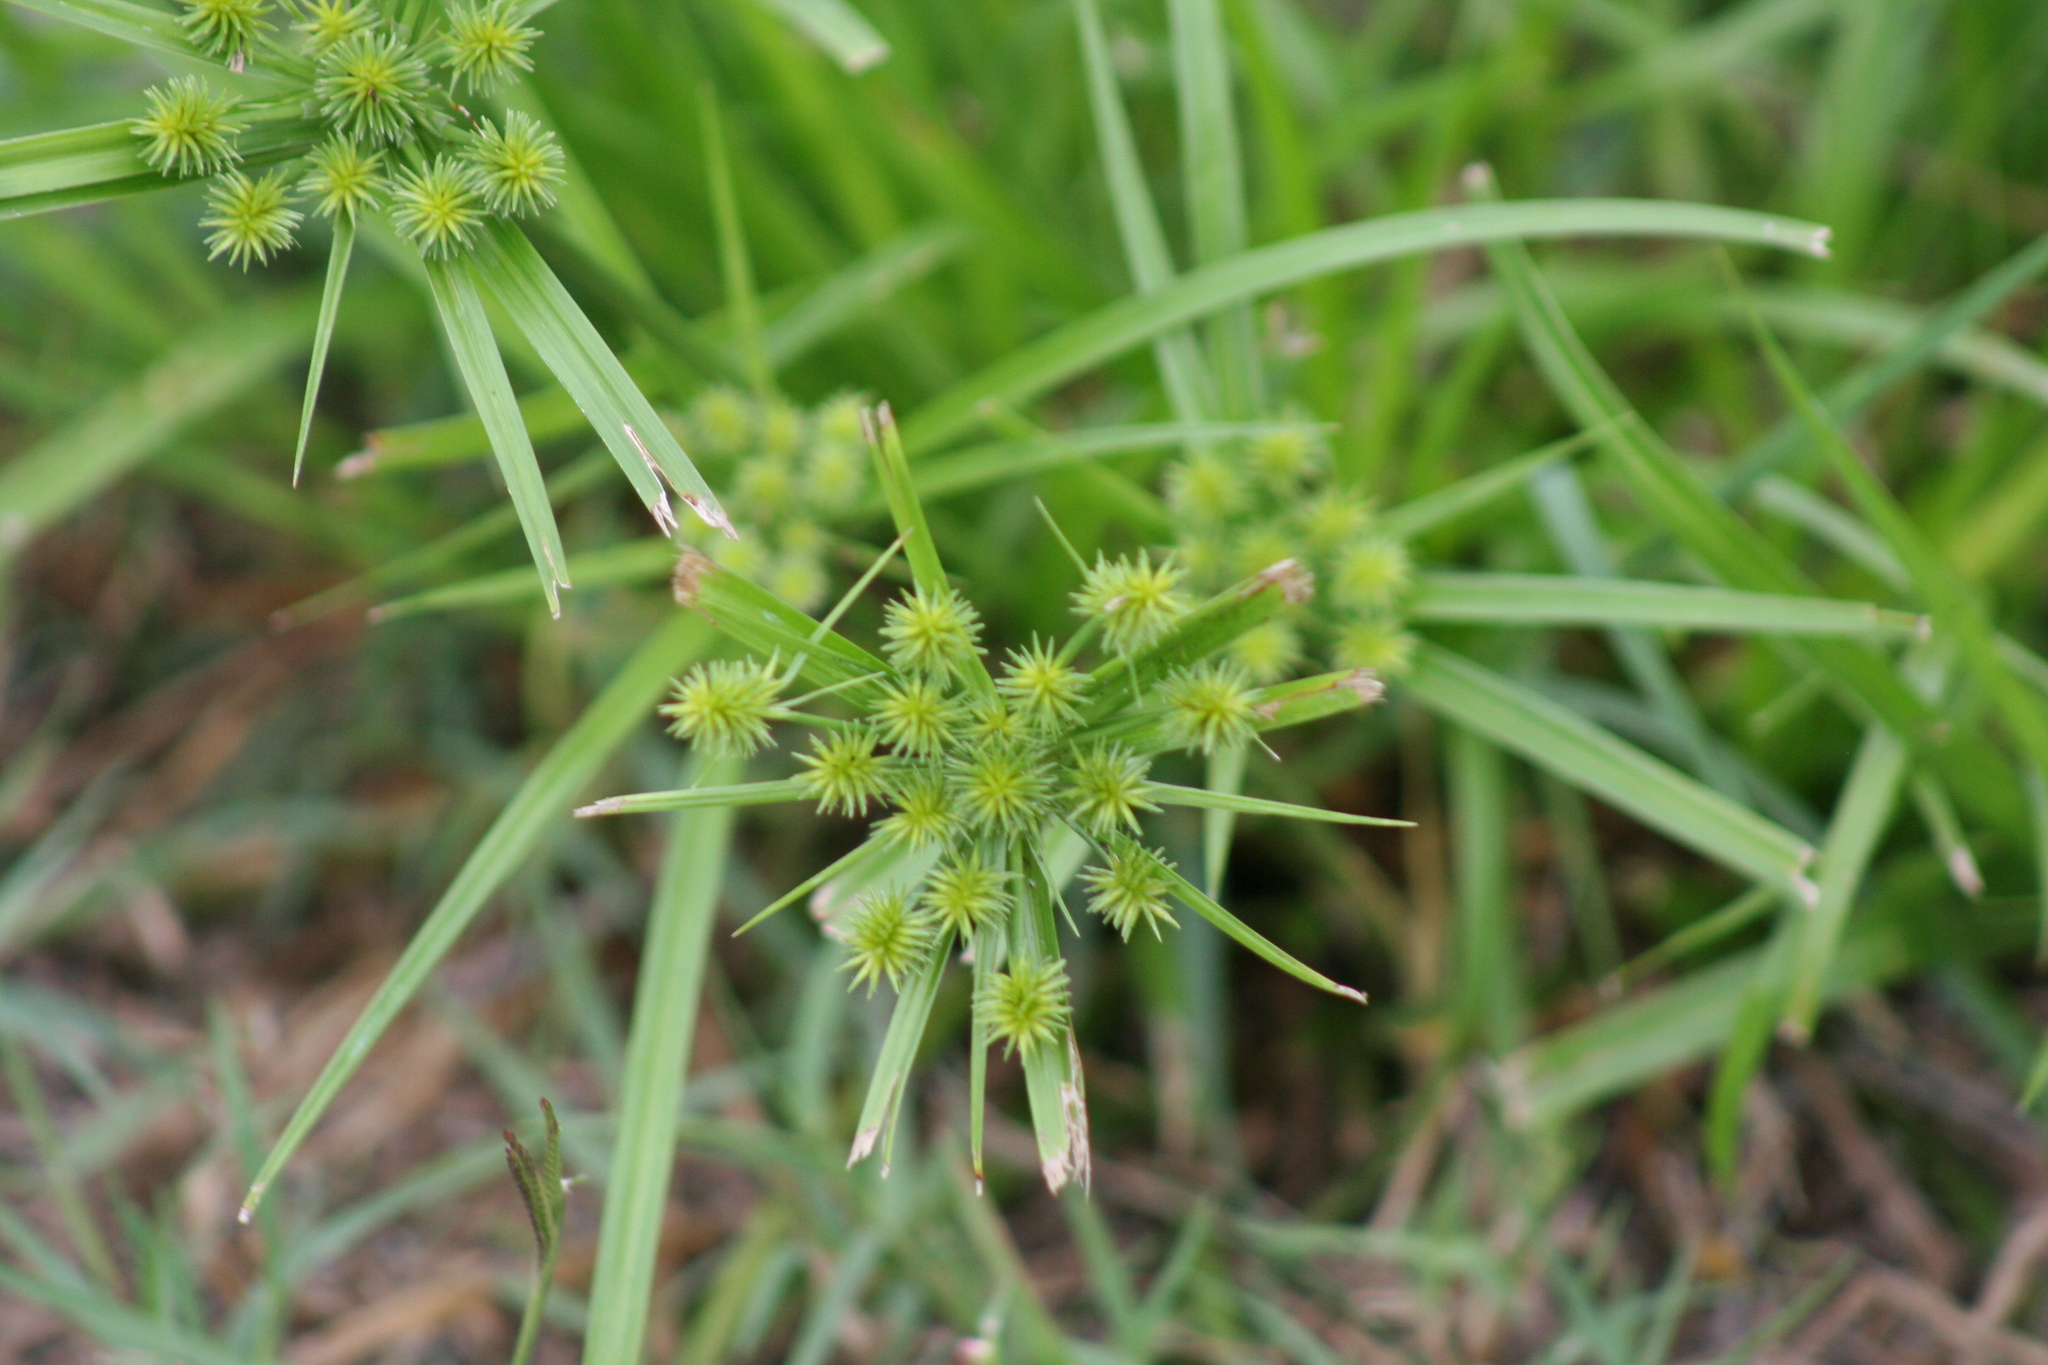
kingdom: Plantae
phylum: Tracheophyta
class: Liliopsida
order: Poales
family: Cyperaceae
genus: Cyperus
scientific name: Cyperus croceus
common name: Baldwin's flatsedge
